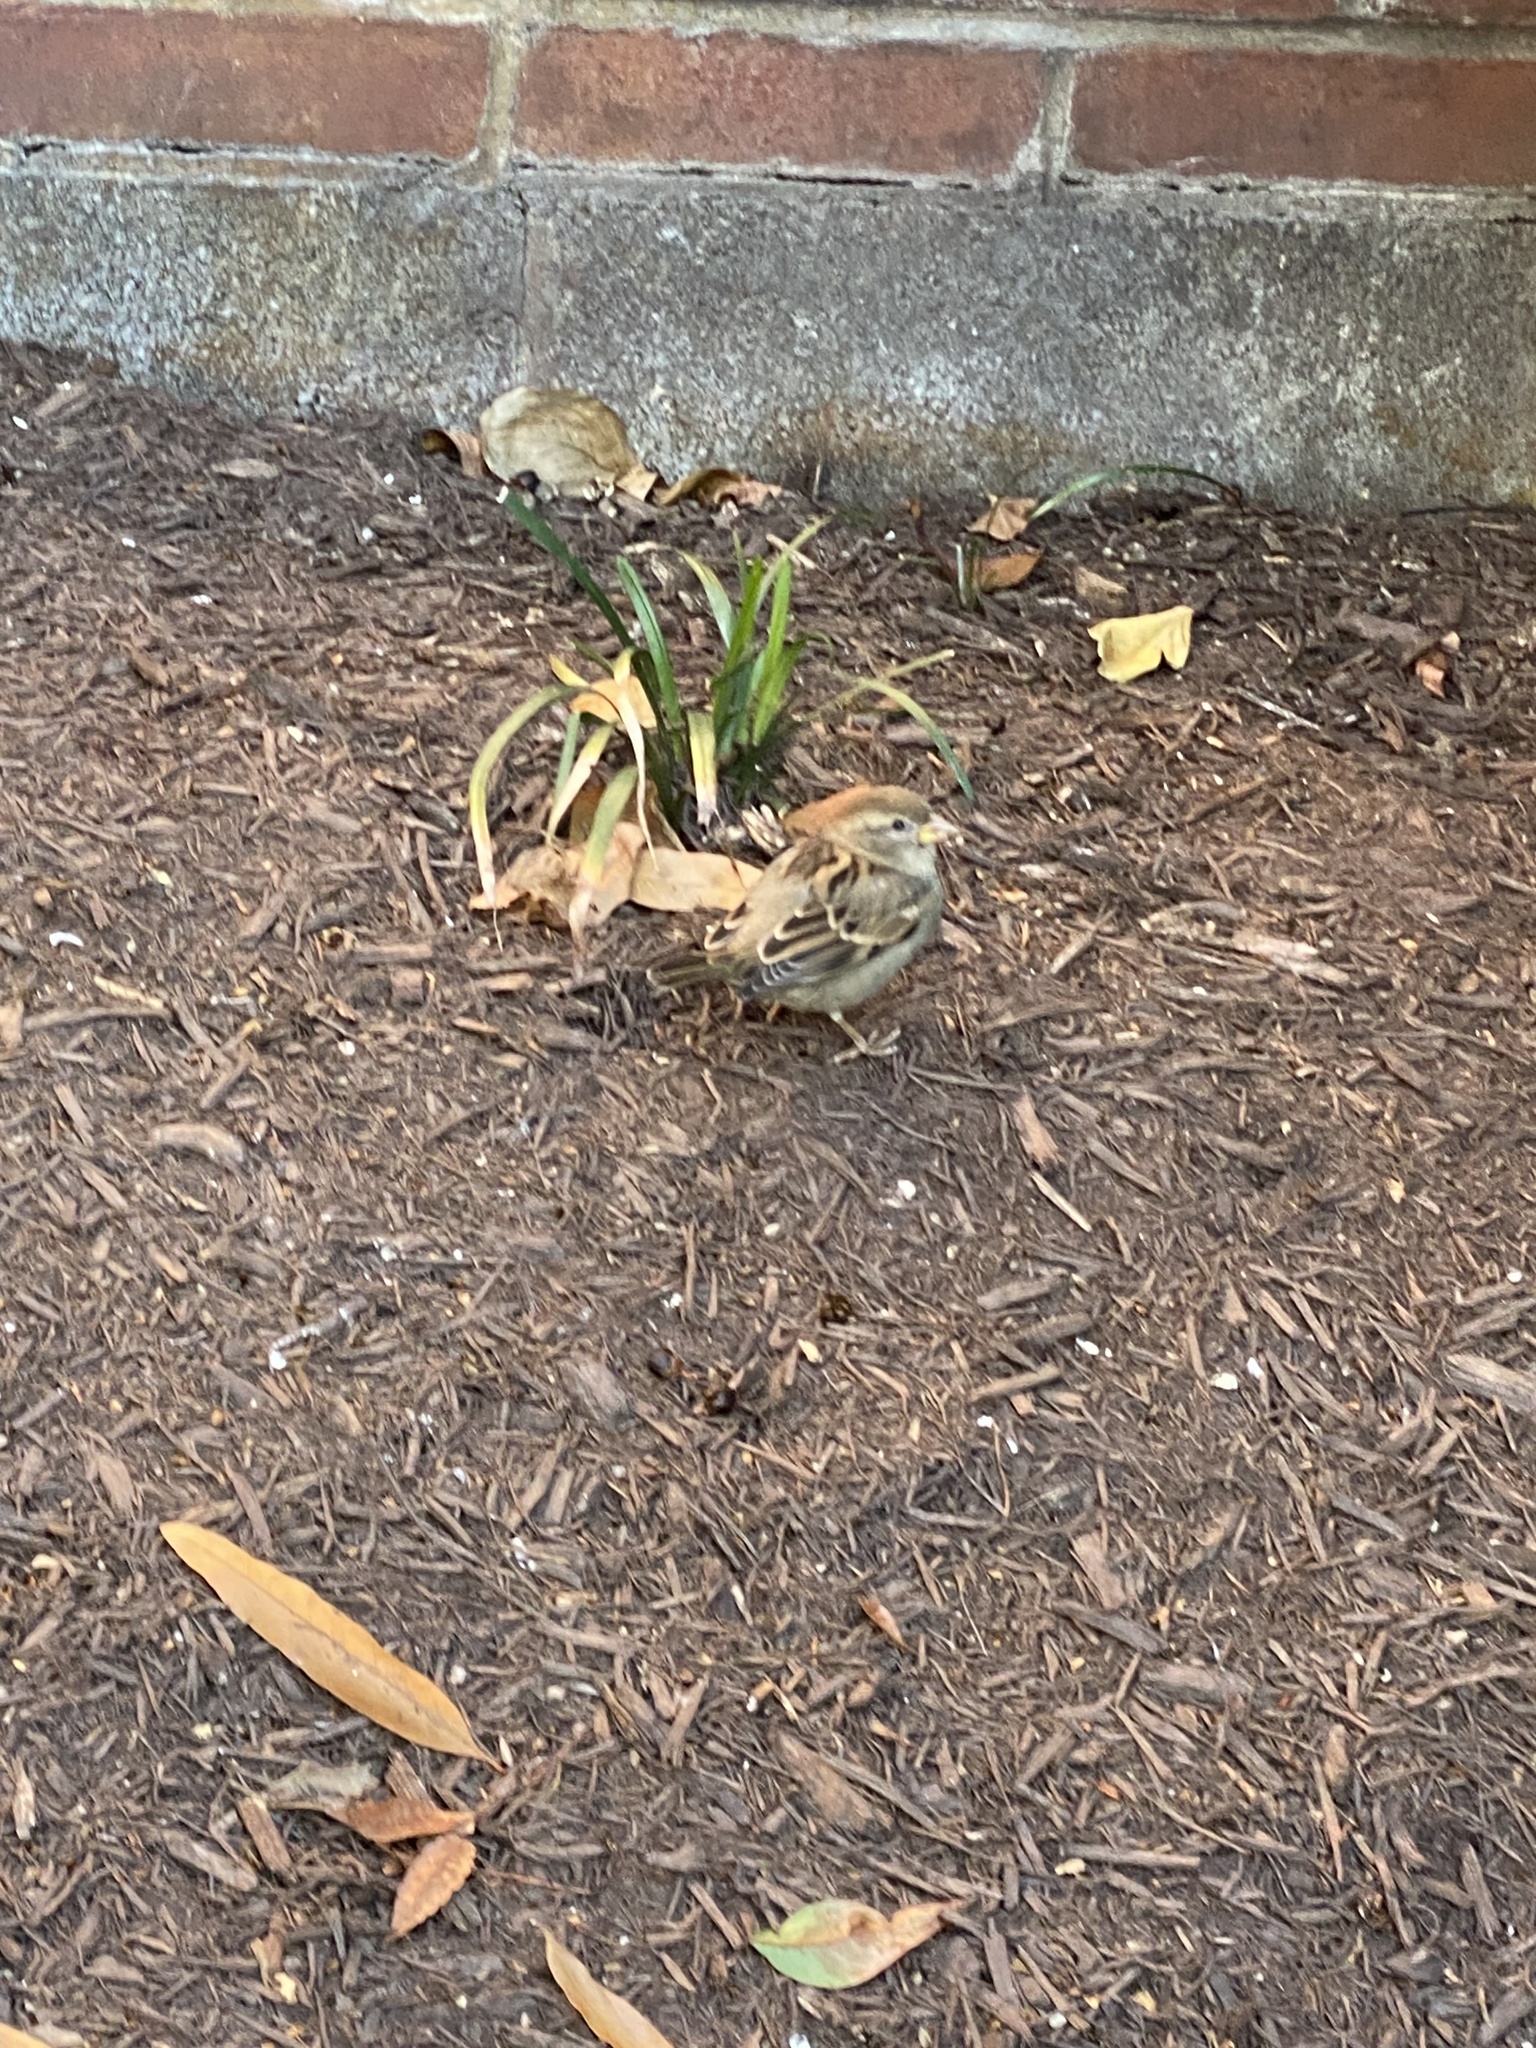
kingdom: Animalia
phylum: Chordata
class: Aves
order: Passeriformes
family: Passeridae
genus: Passer
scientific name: Passer domesticus
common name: House sparrow
